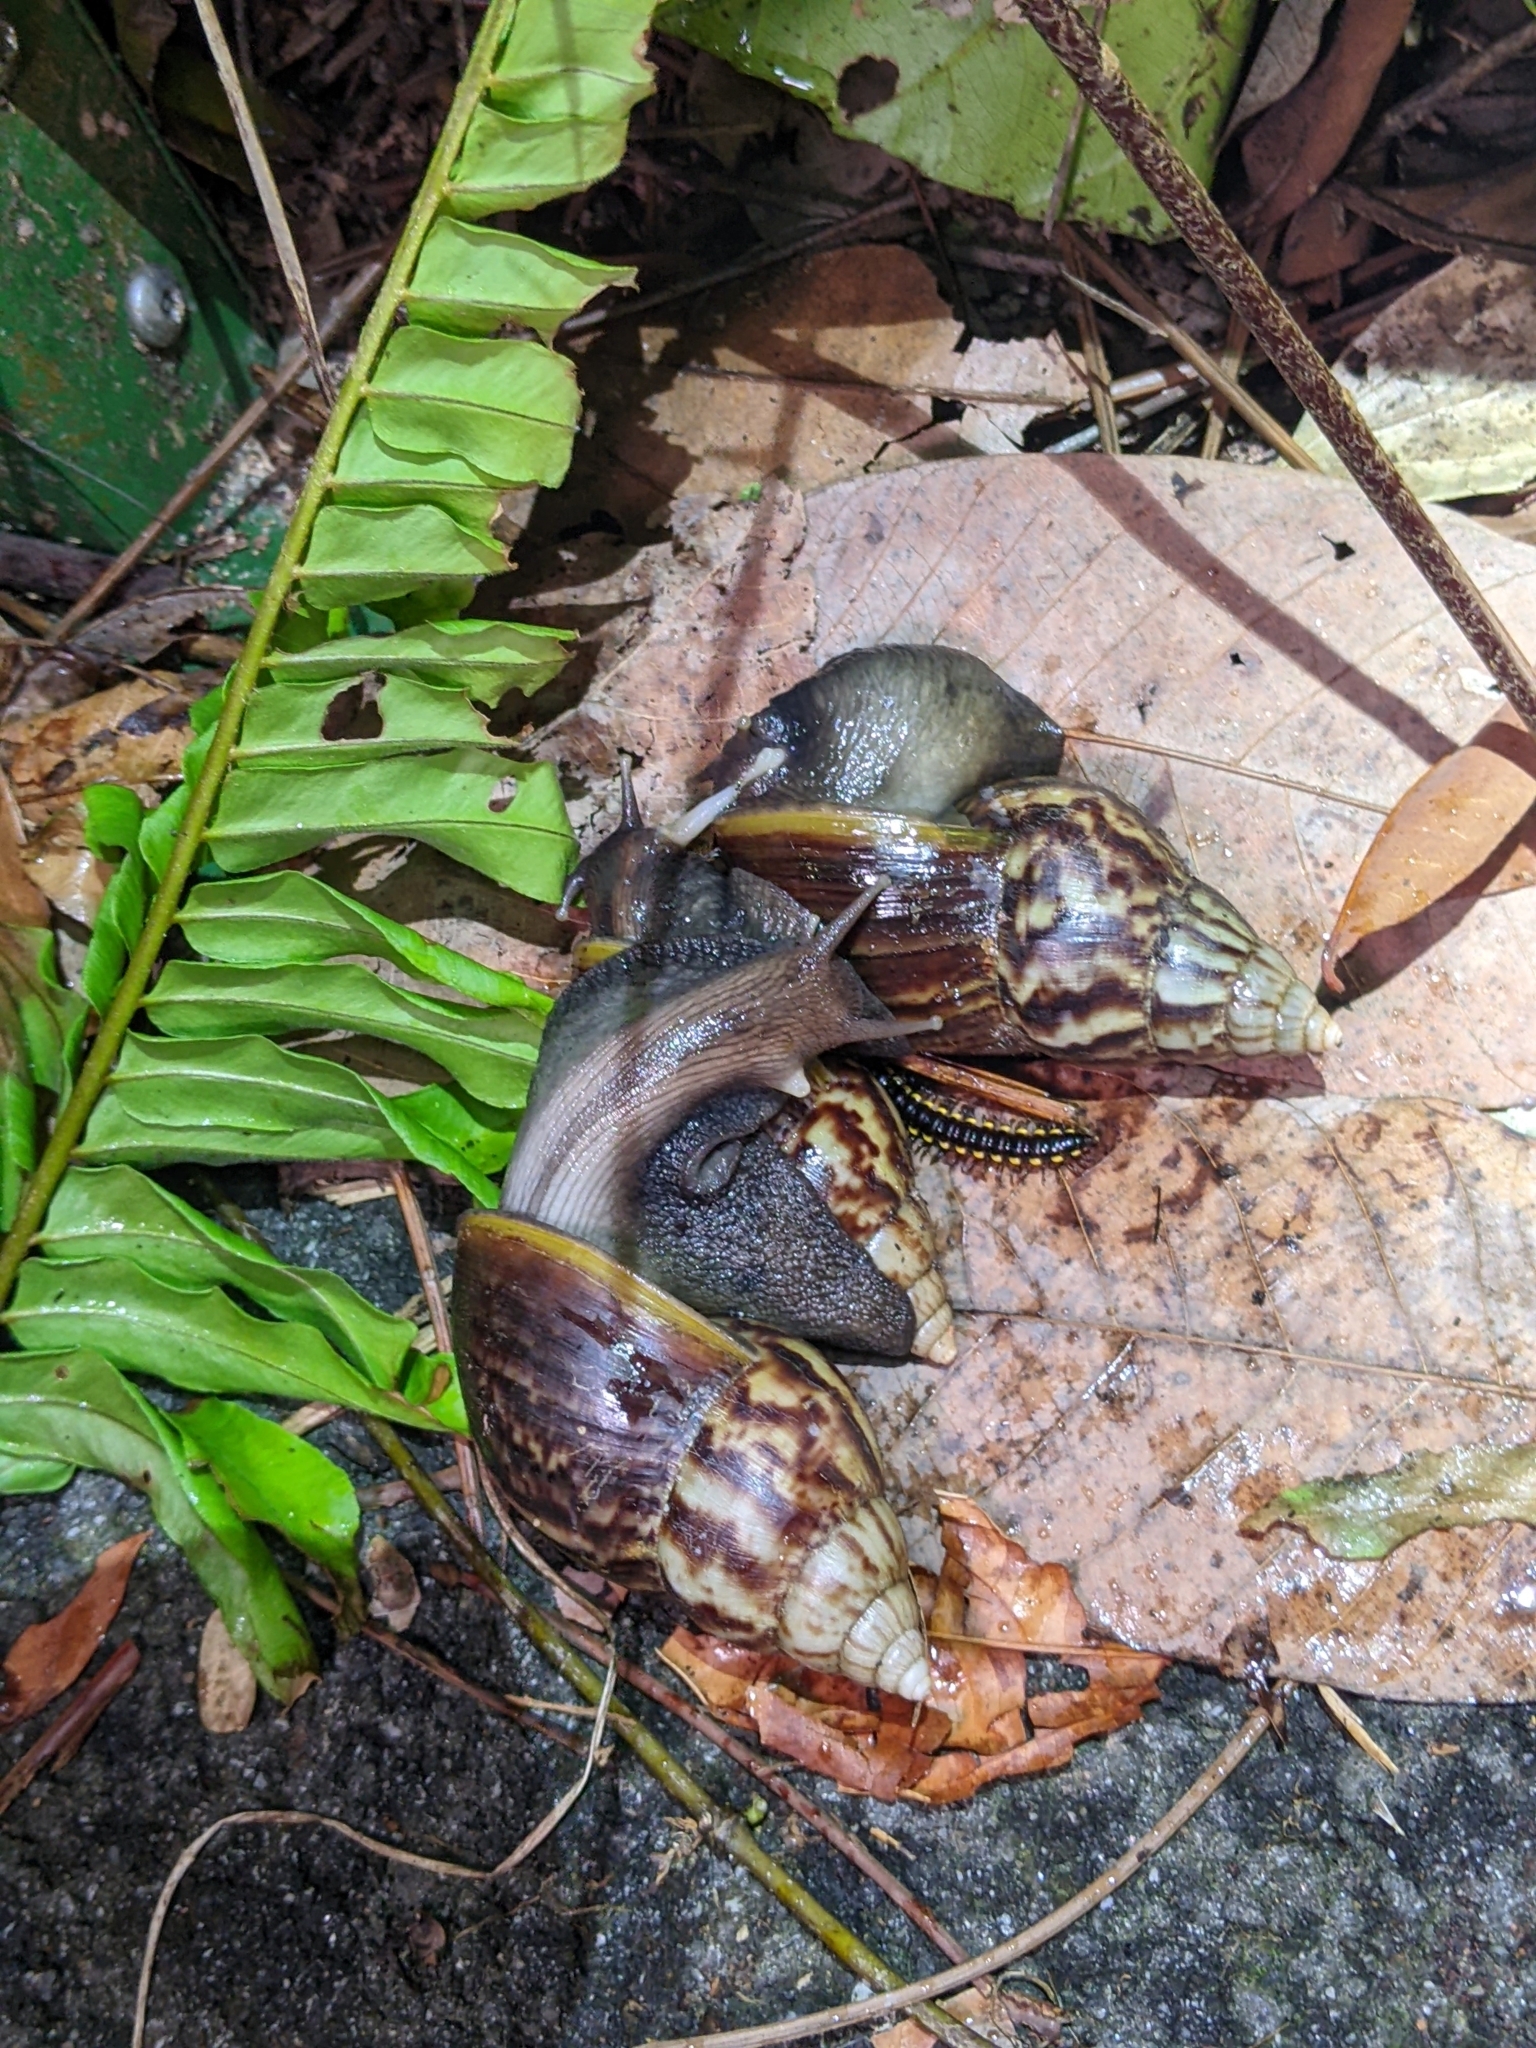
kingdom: Animalia
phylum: Mollusca
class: Gastropoda
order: Stylommatophora
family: Achatinidae
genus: Lissachatina
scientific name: Lissachatina fulica
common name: Giant african snail
